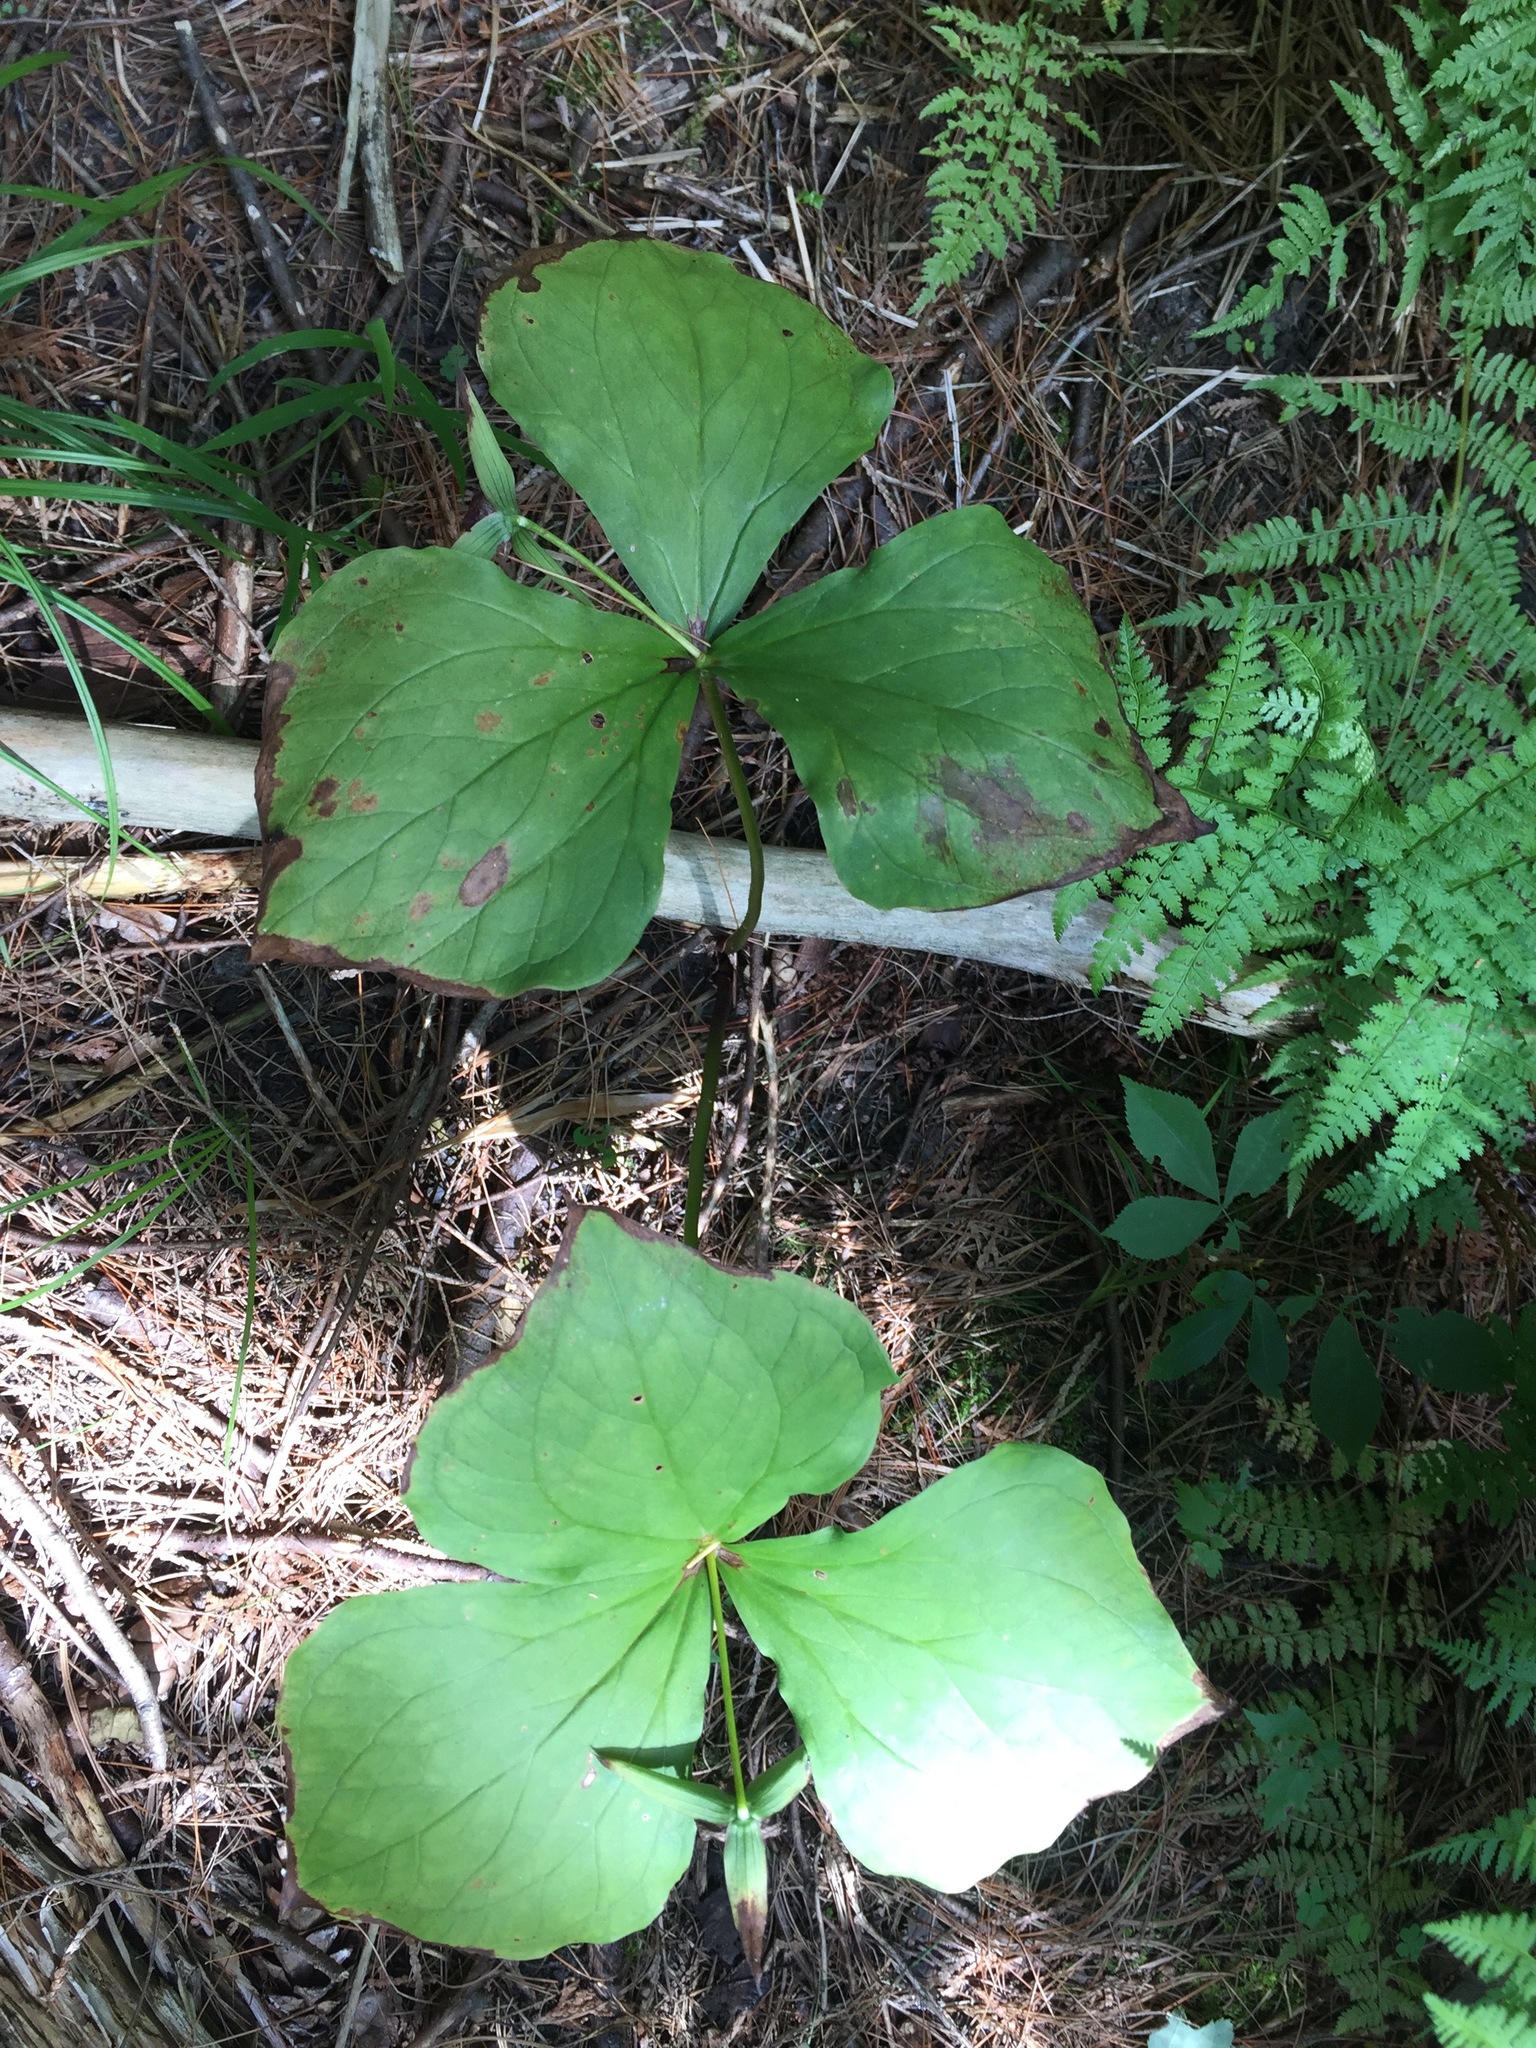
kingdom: Plantae
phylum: Tracheophyta
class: Liliopsida
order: Liliales
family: Melanthiaceae
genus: Trillium
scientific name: Trillium erectum
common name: Purple trillium
